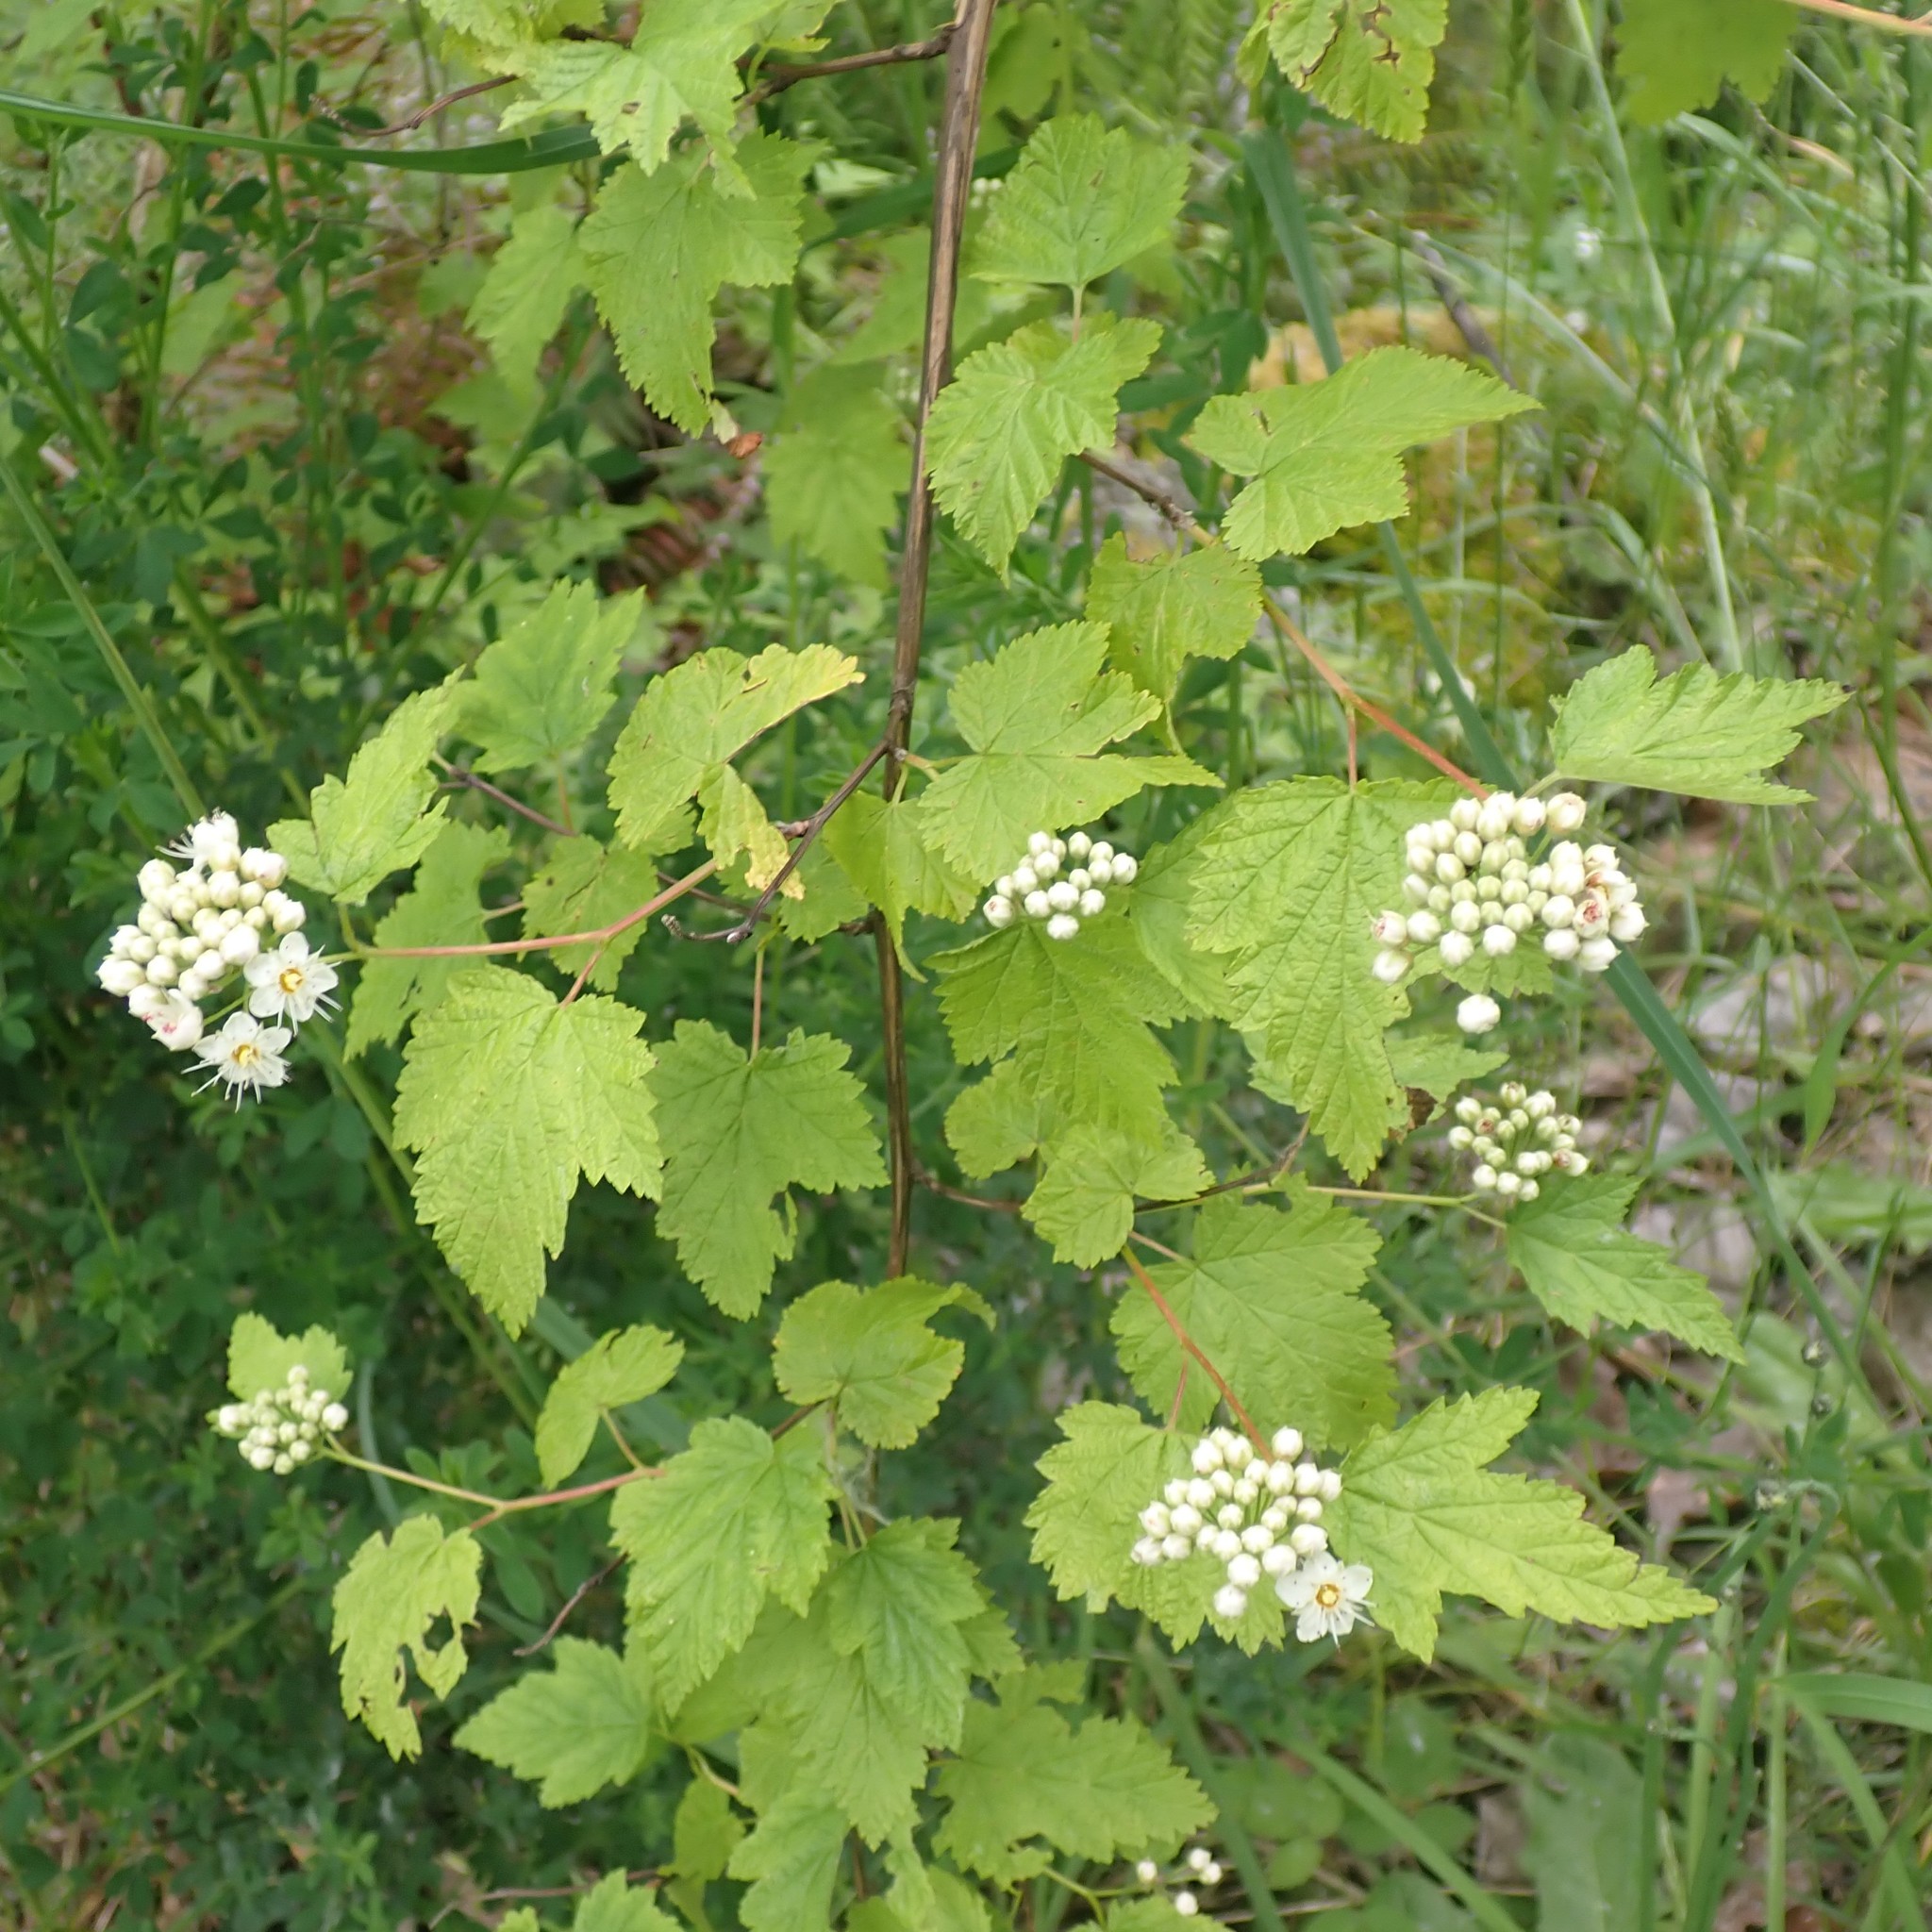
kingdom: Plantae
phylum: Tracheophyta
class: Magnoliopsida
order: Rosales
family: Rosaceae
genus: Physocarpus
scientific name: Physocarpus capitatus
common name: Pacific ninebark
